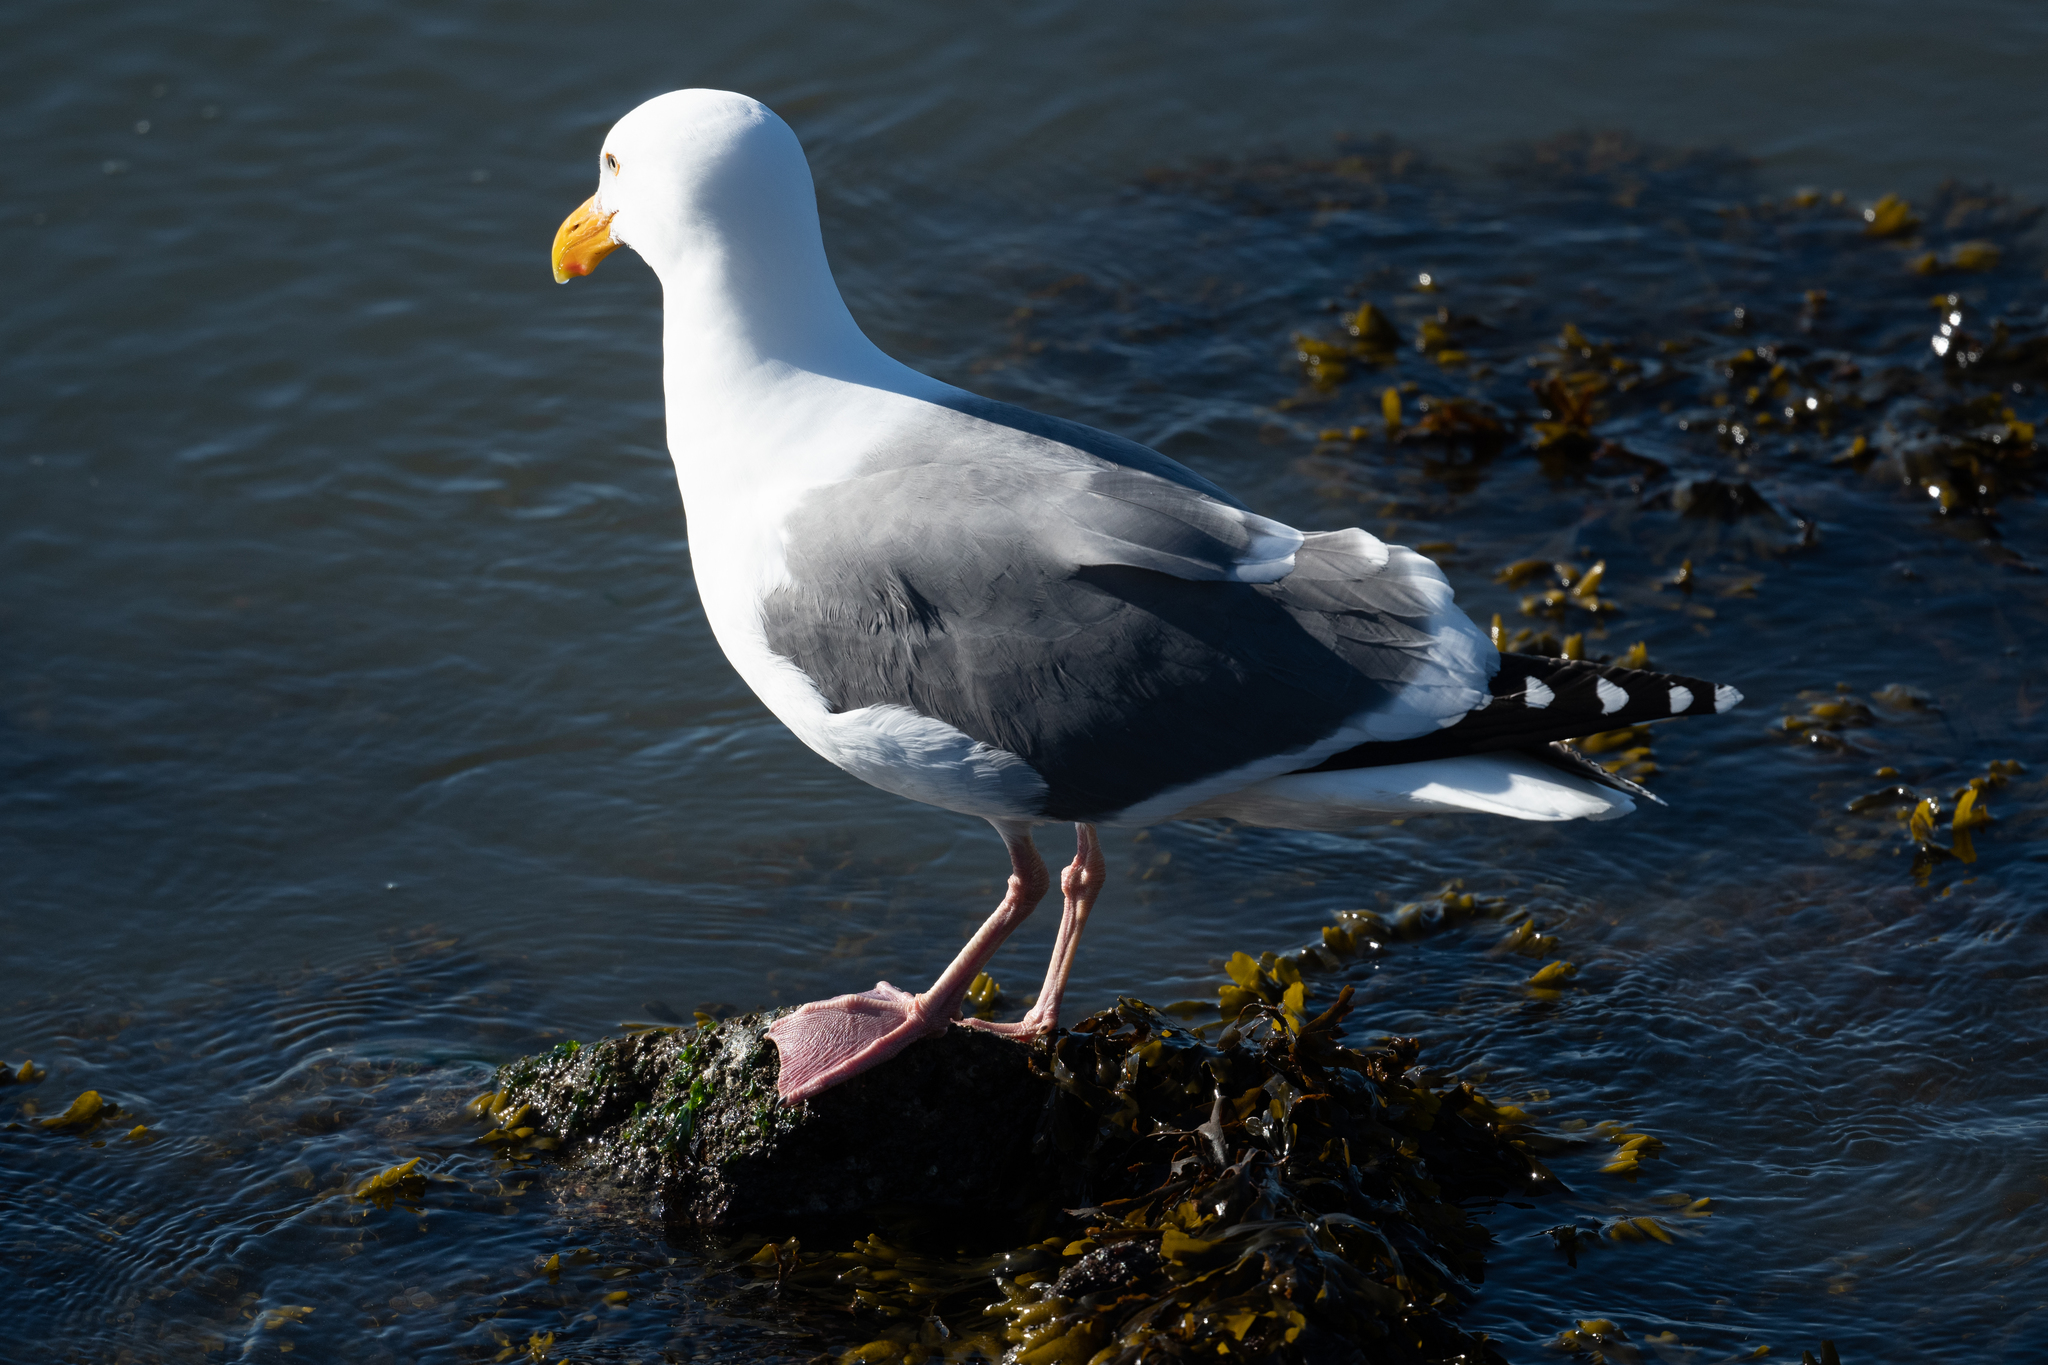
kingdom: Animalia
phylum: Chordata
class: Aves
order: Charadriiformes
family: Laridae
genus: Larus
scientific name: Larus occidentalis
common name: Western gull
